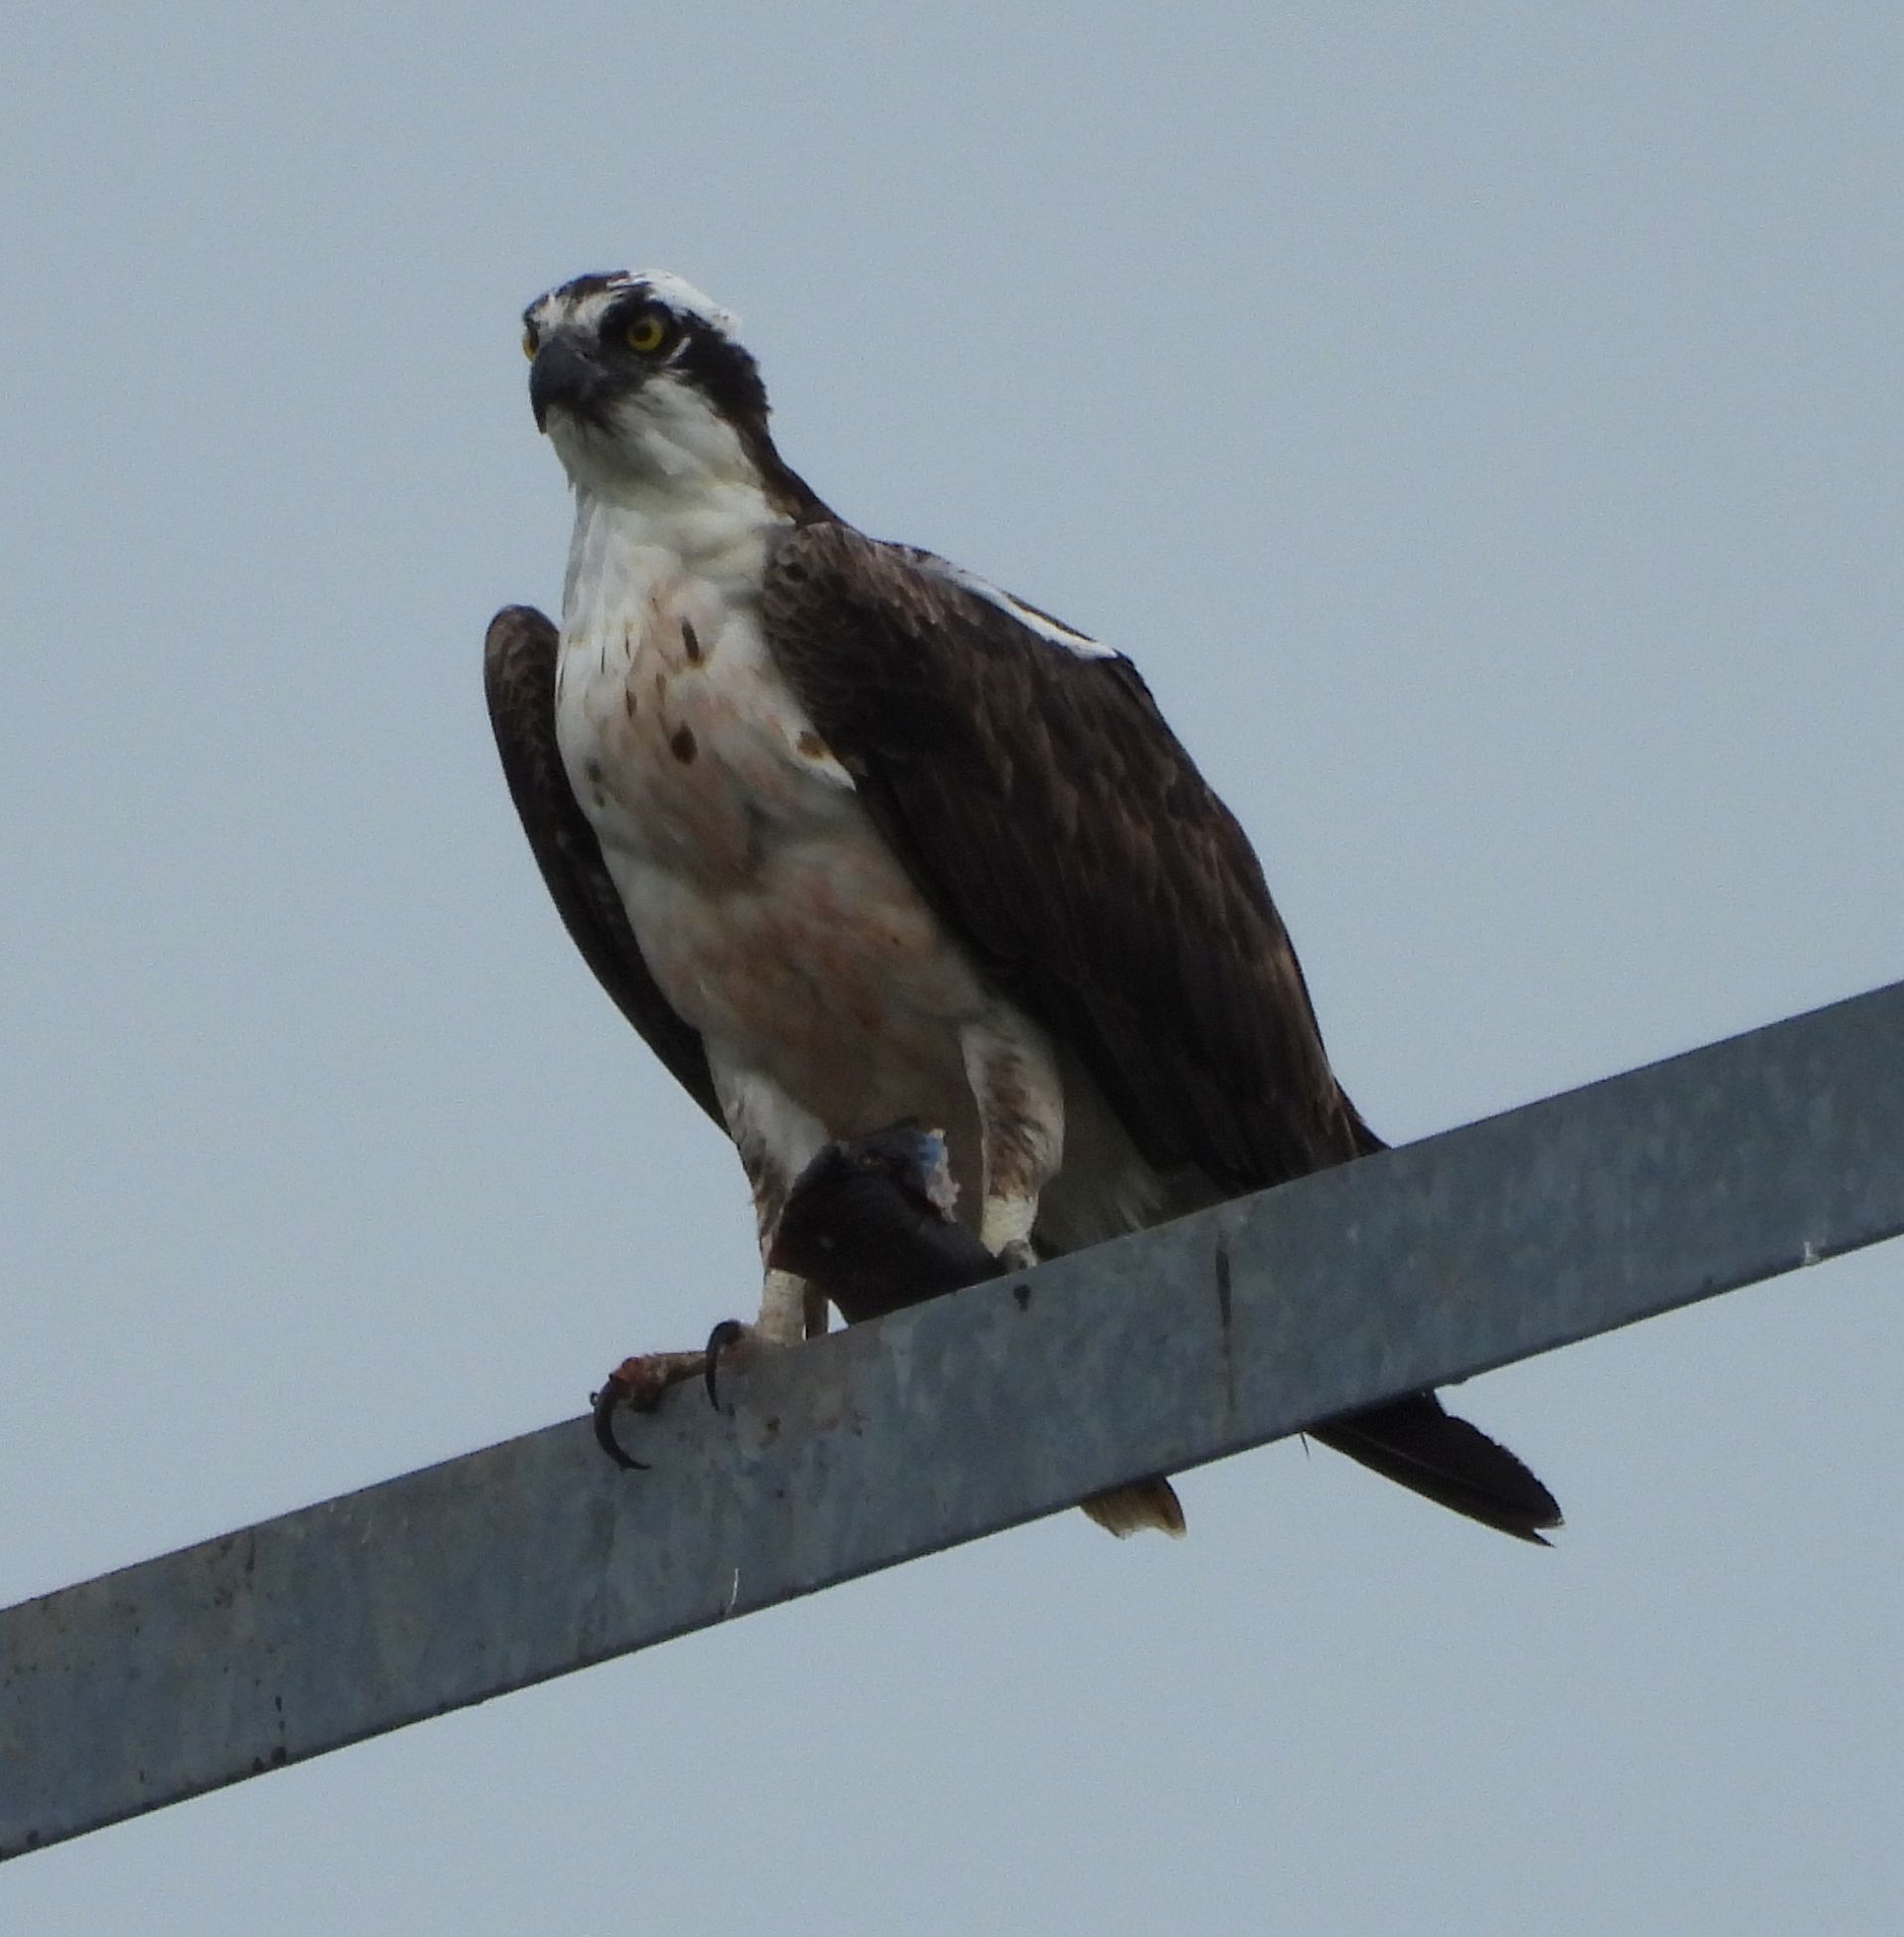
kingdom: Animalia
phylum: Chordata
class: Aves
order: Accipitriformes
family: Pandionidae
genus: Pandion
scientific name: Pandion haliaetus
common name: Osprey
